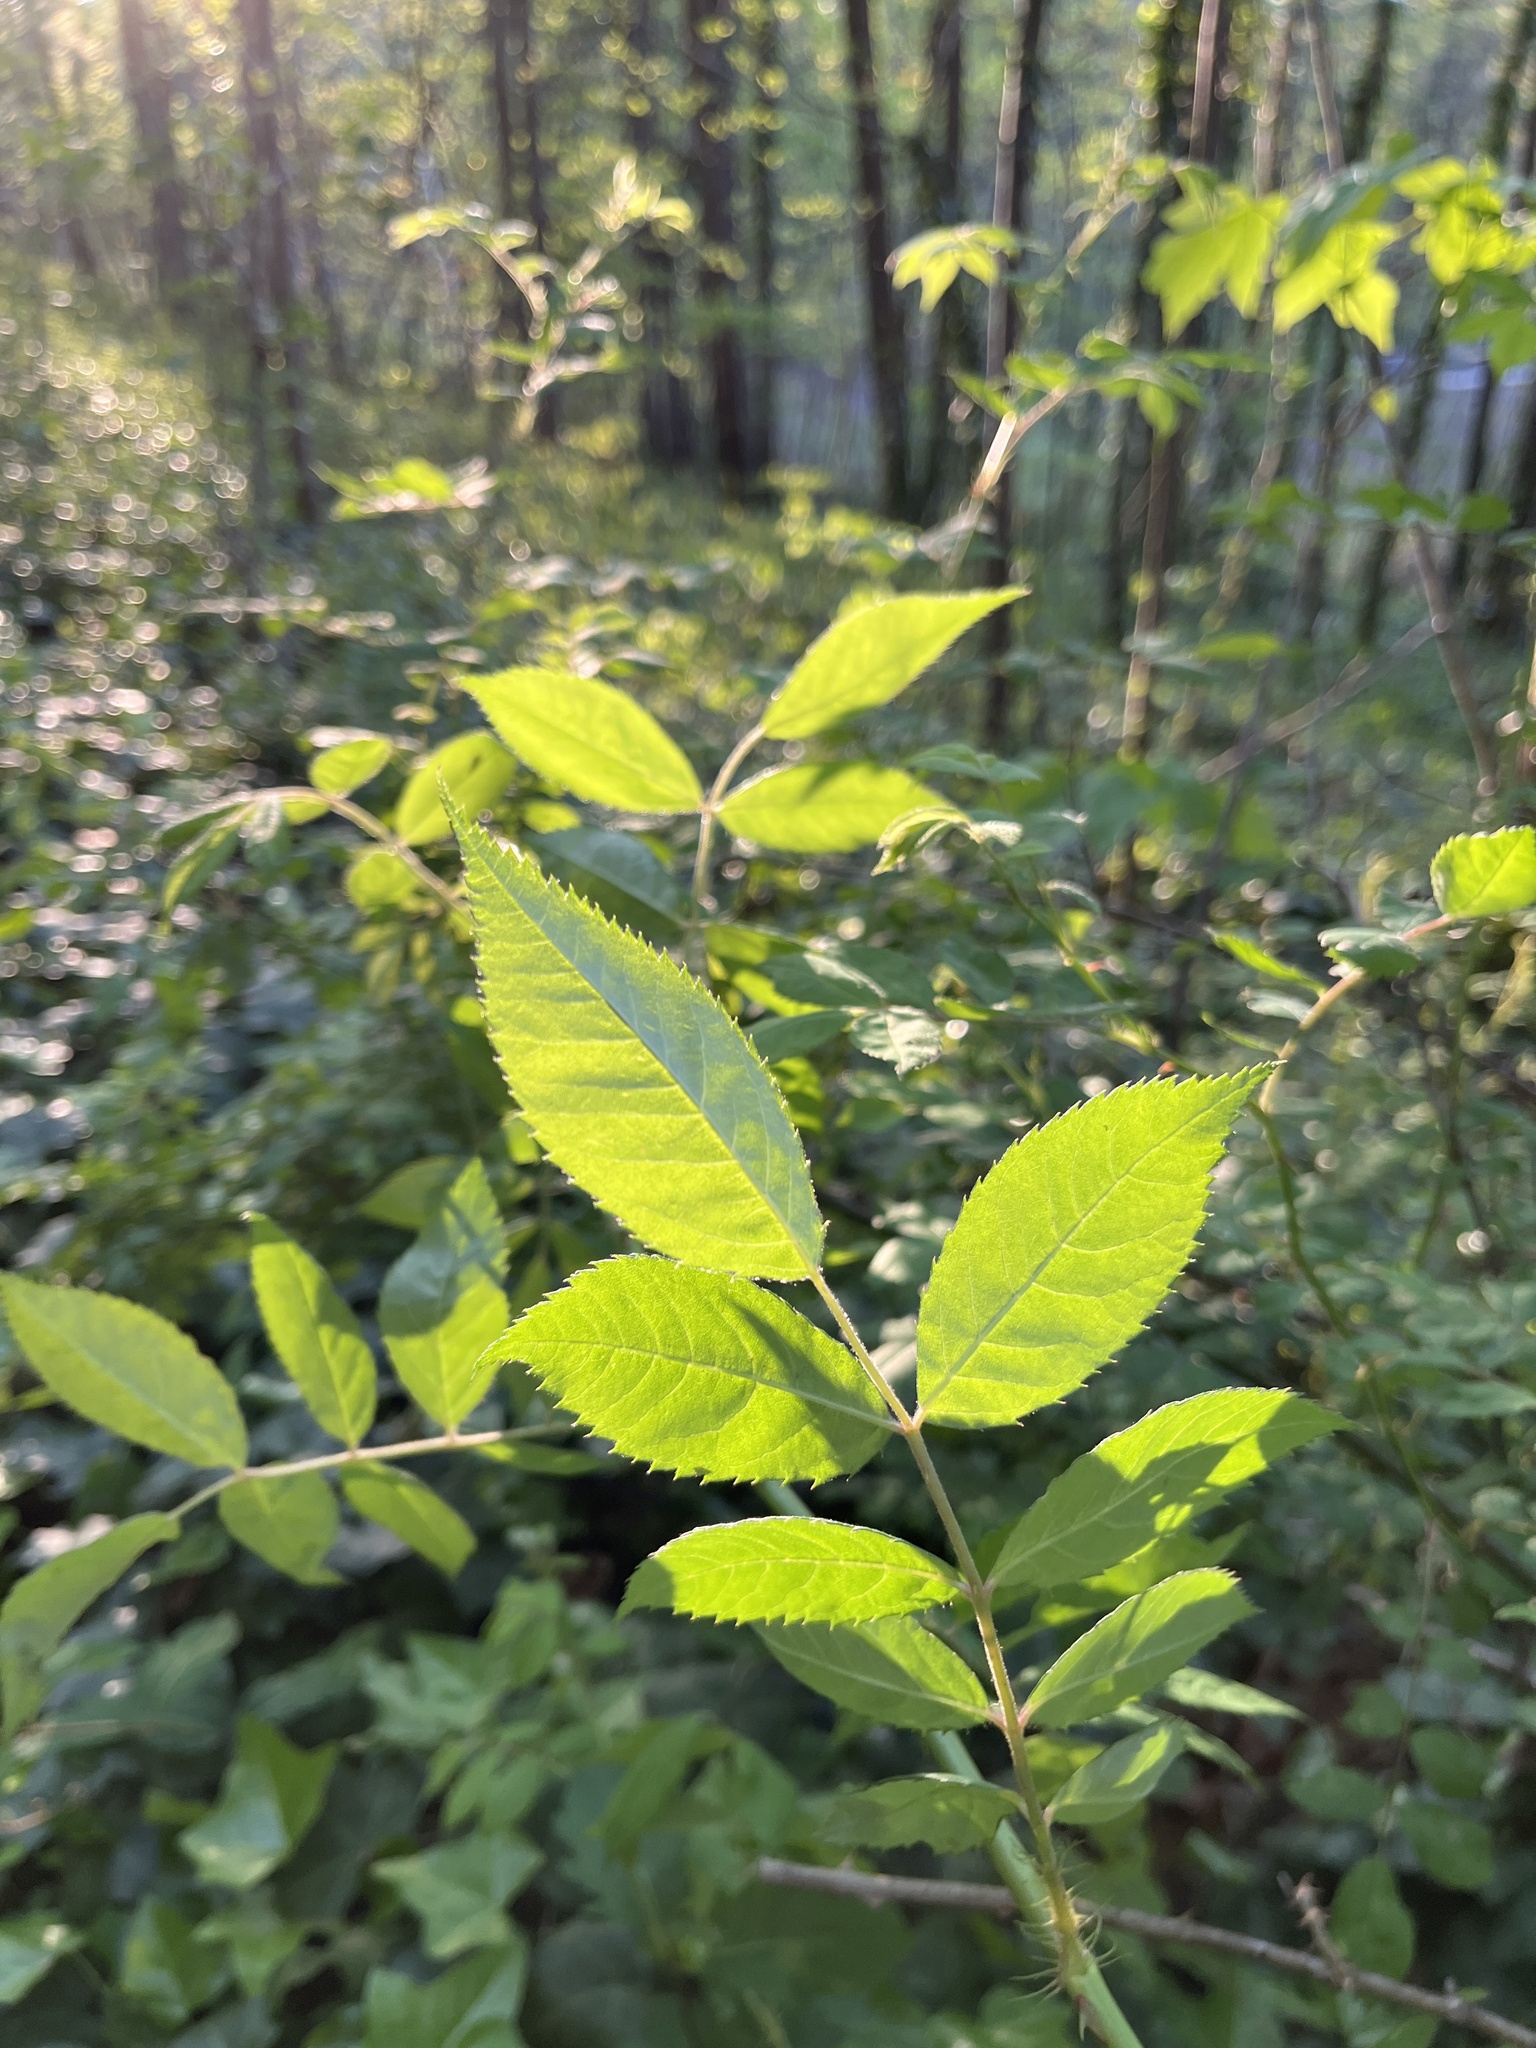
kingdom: Plantae
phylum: Tracheophyta
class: Magnoliopsida
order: Rosales
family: Rosaceae
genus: Rosa
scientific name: Rosa multiflora
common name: Multiflora rose
